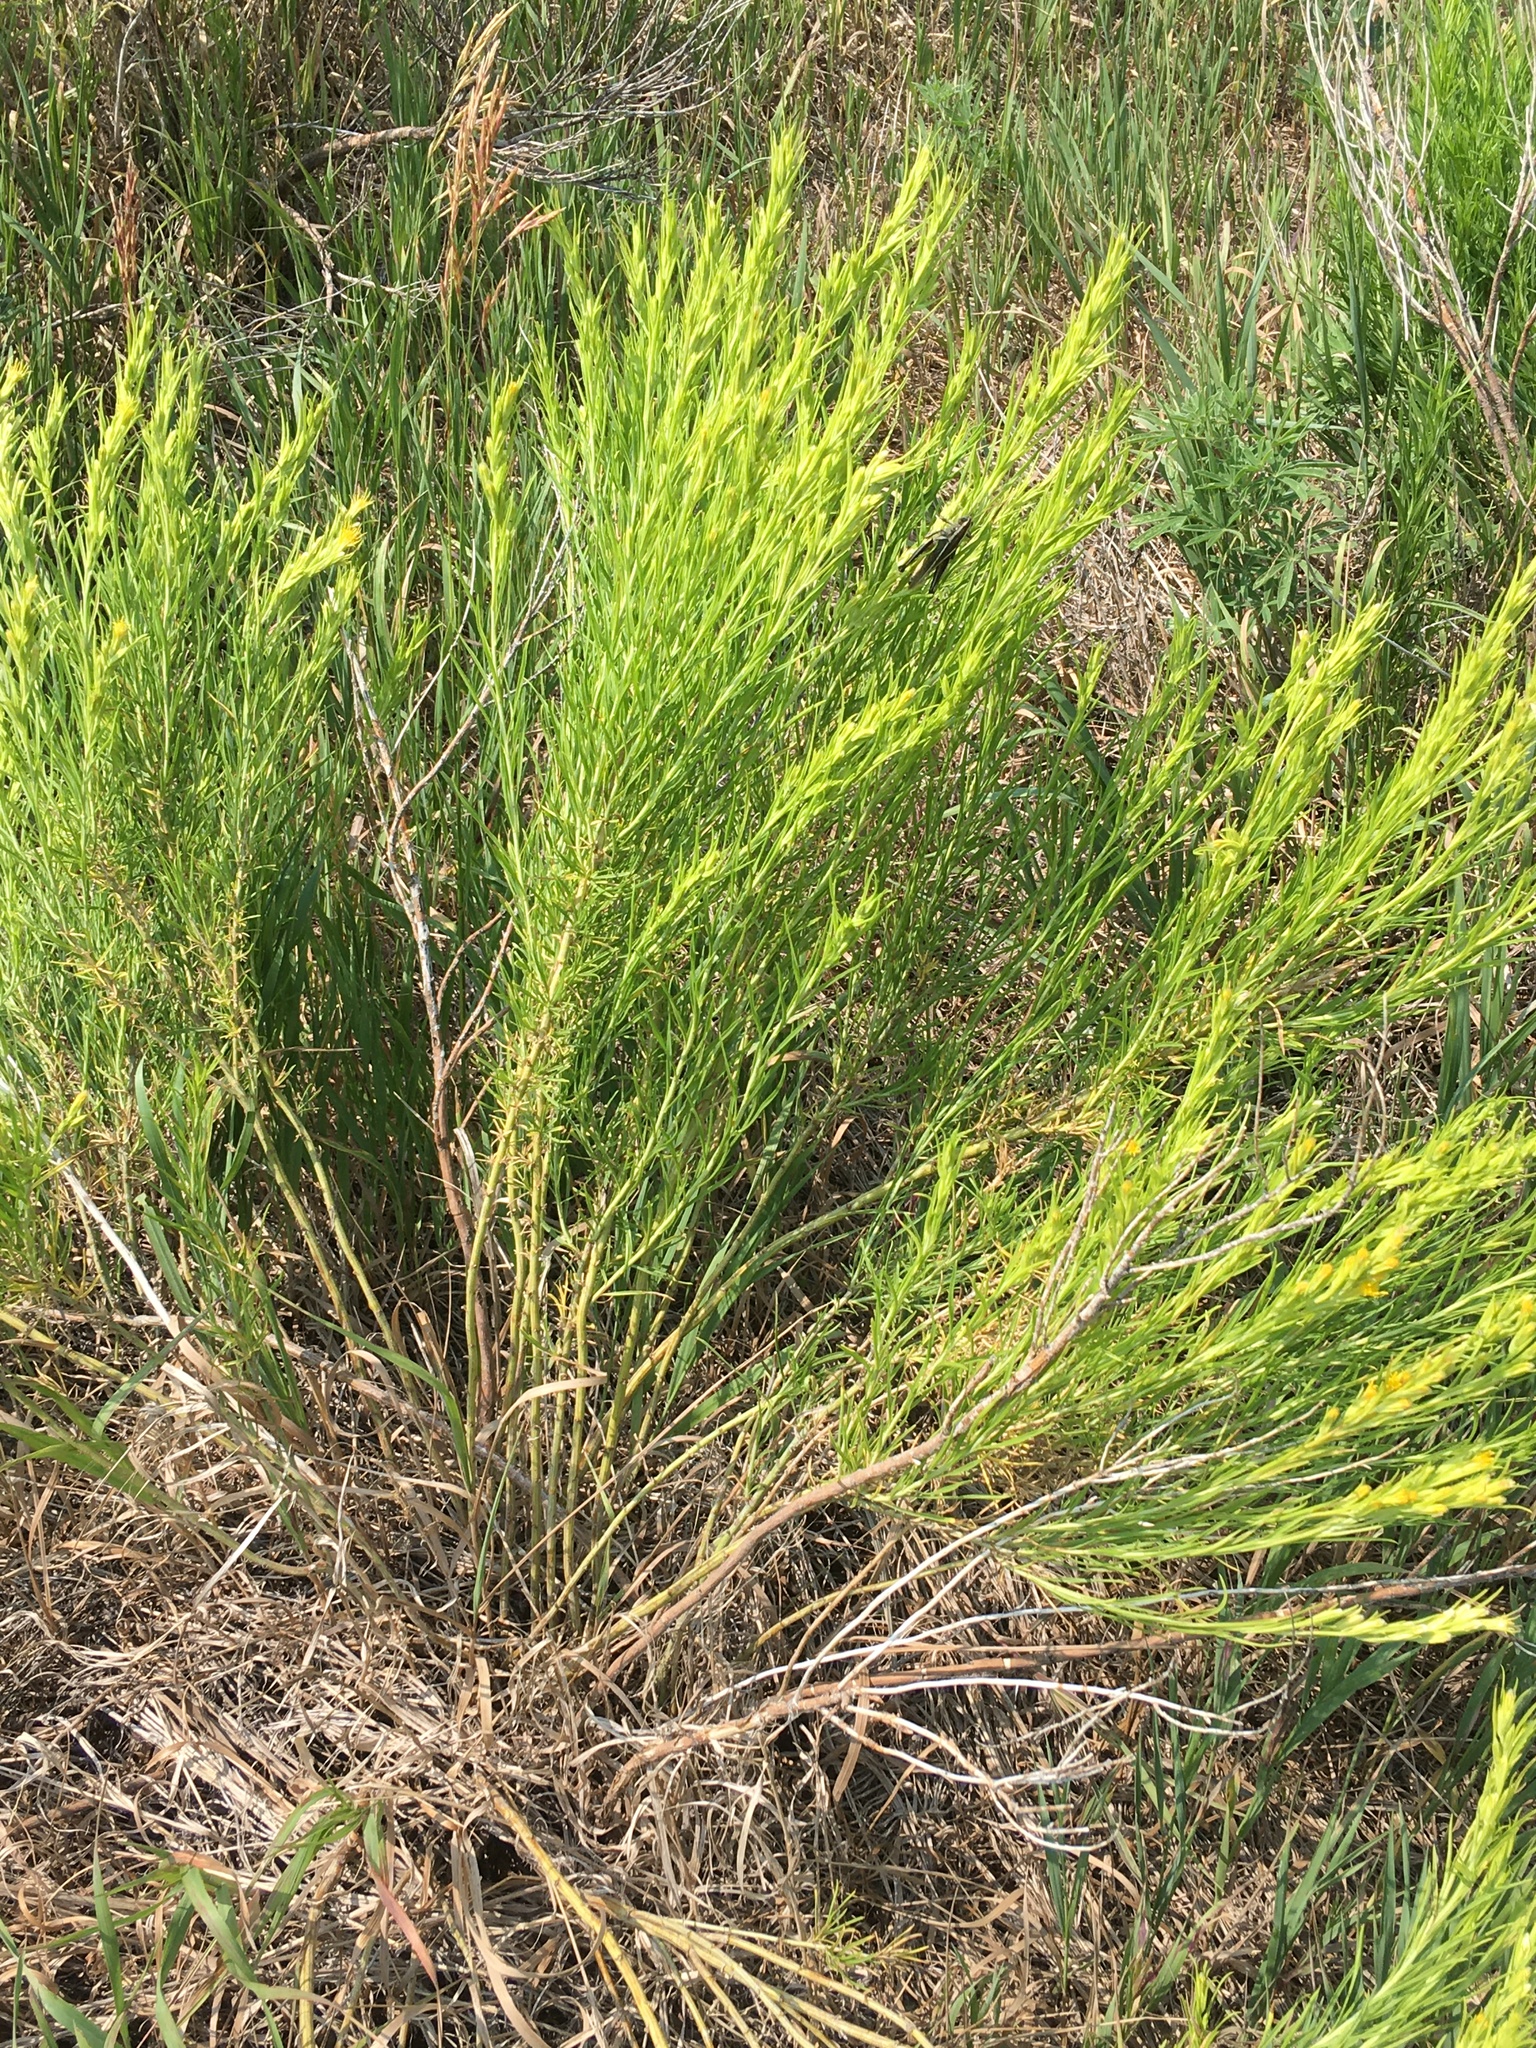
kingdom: Animalia
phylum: Arthropoda
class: Insecta
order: Orthoptera
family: Acrididae
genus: Melanoplus
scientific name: Melanoplus bivittatus
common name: Two-striped grasshopper
